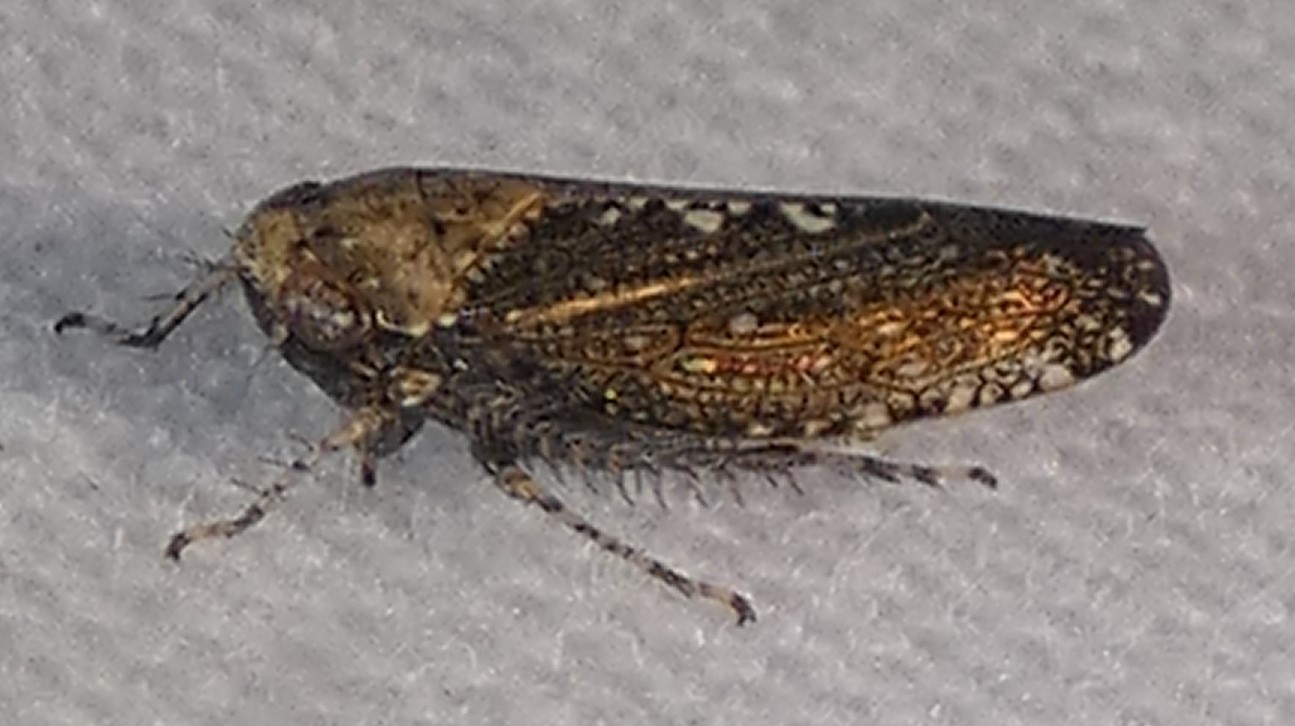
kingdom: Animalia
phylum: Arthropoda
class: Insecta
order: Hemiptera
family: Cicadellidae
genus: Excultanus
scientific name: Excultanus excultus
